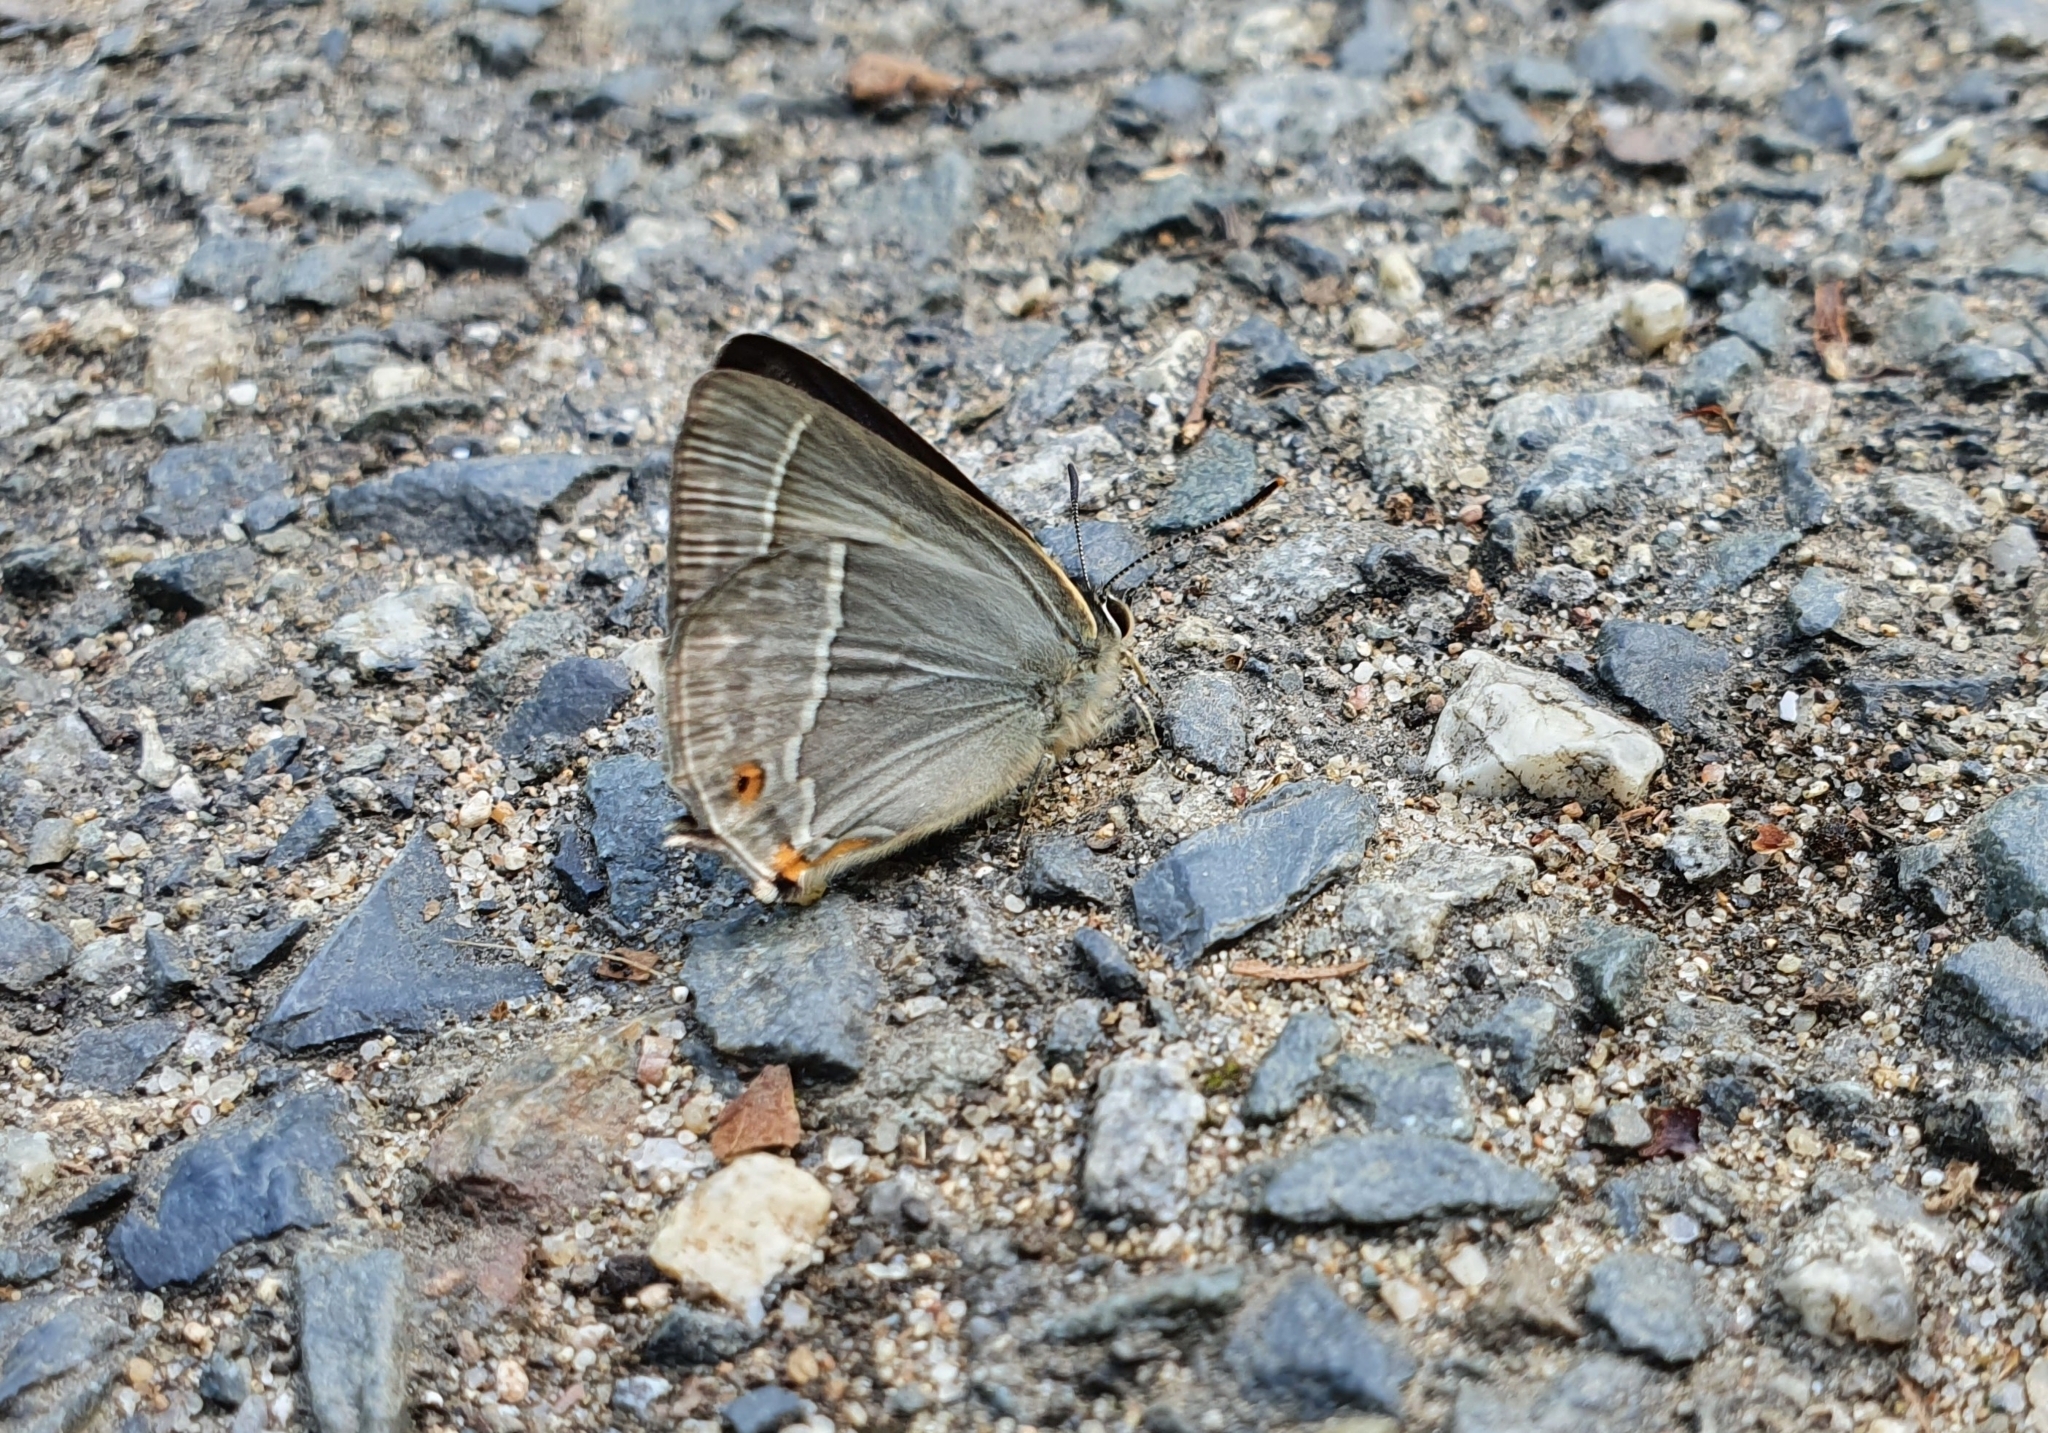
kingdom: Animalia
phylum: Arthropoda
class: Insecta
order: Lepidoptera
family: Lycaenidae
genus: Quercusia
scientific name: Quercusia quercus
